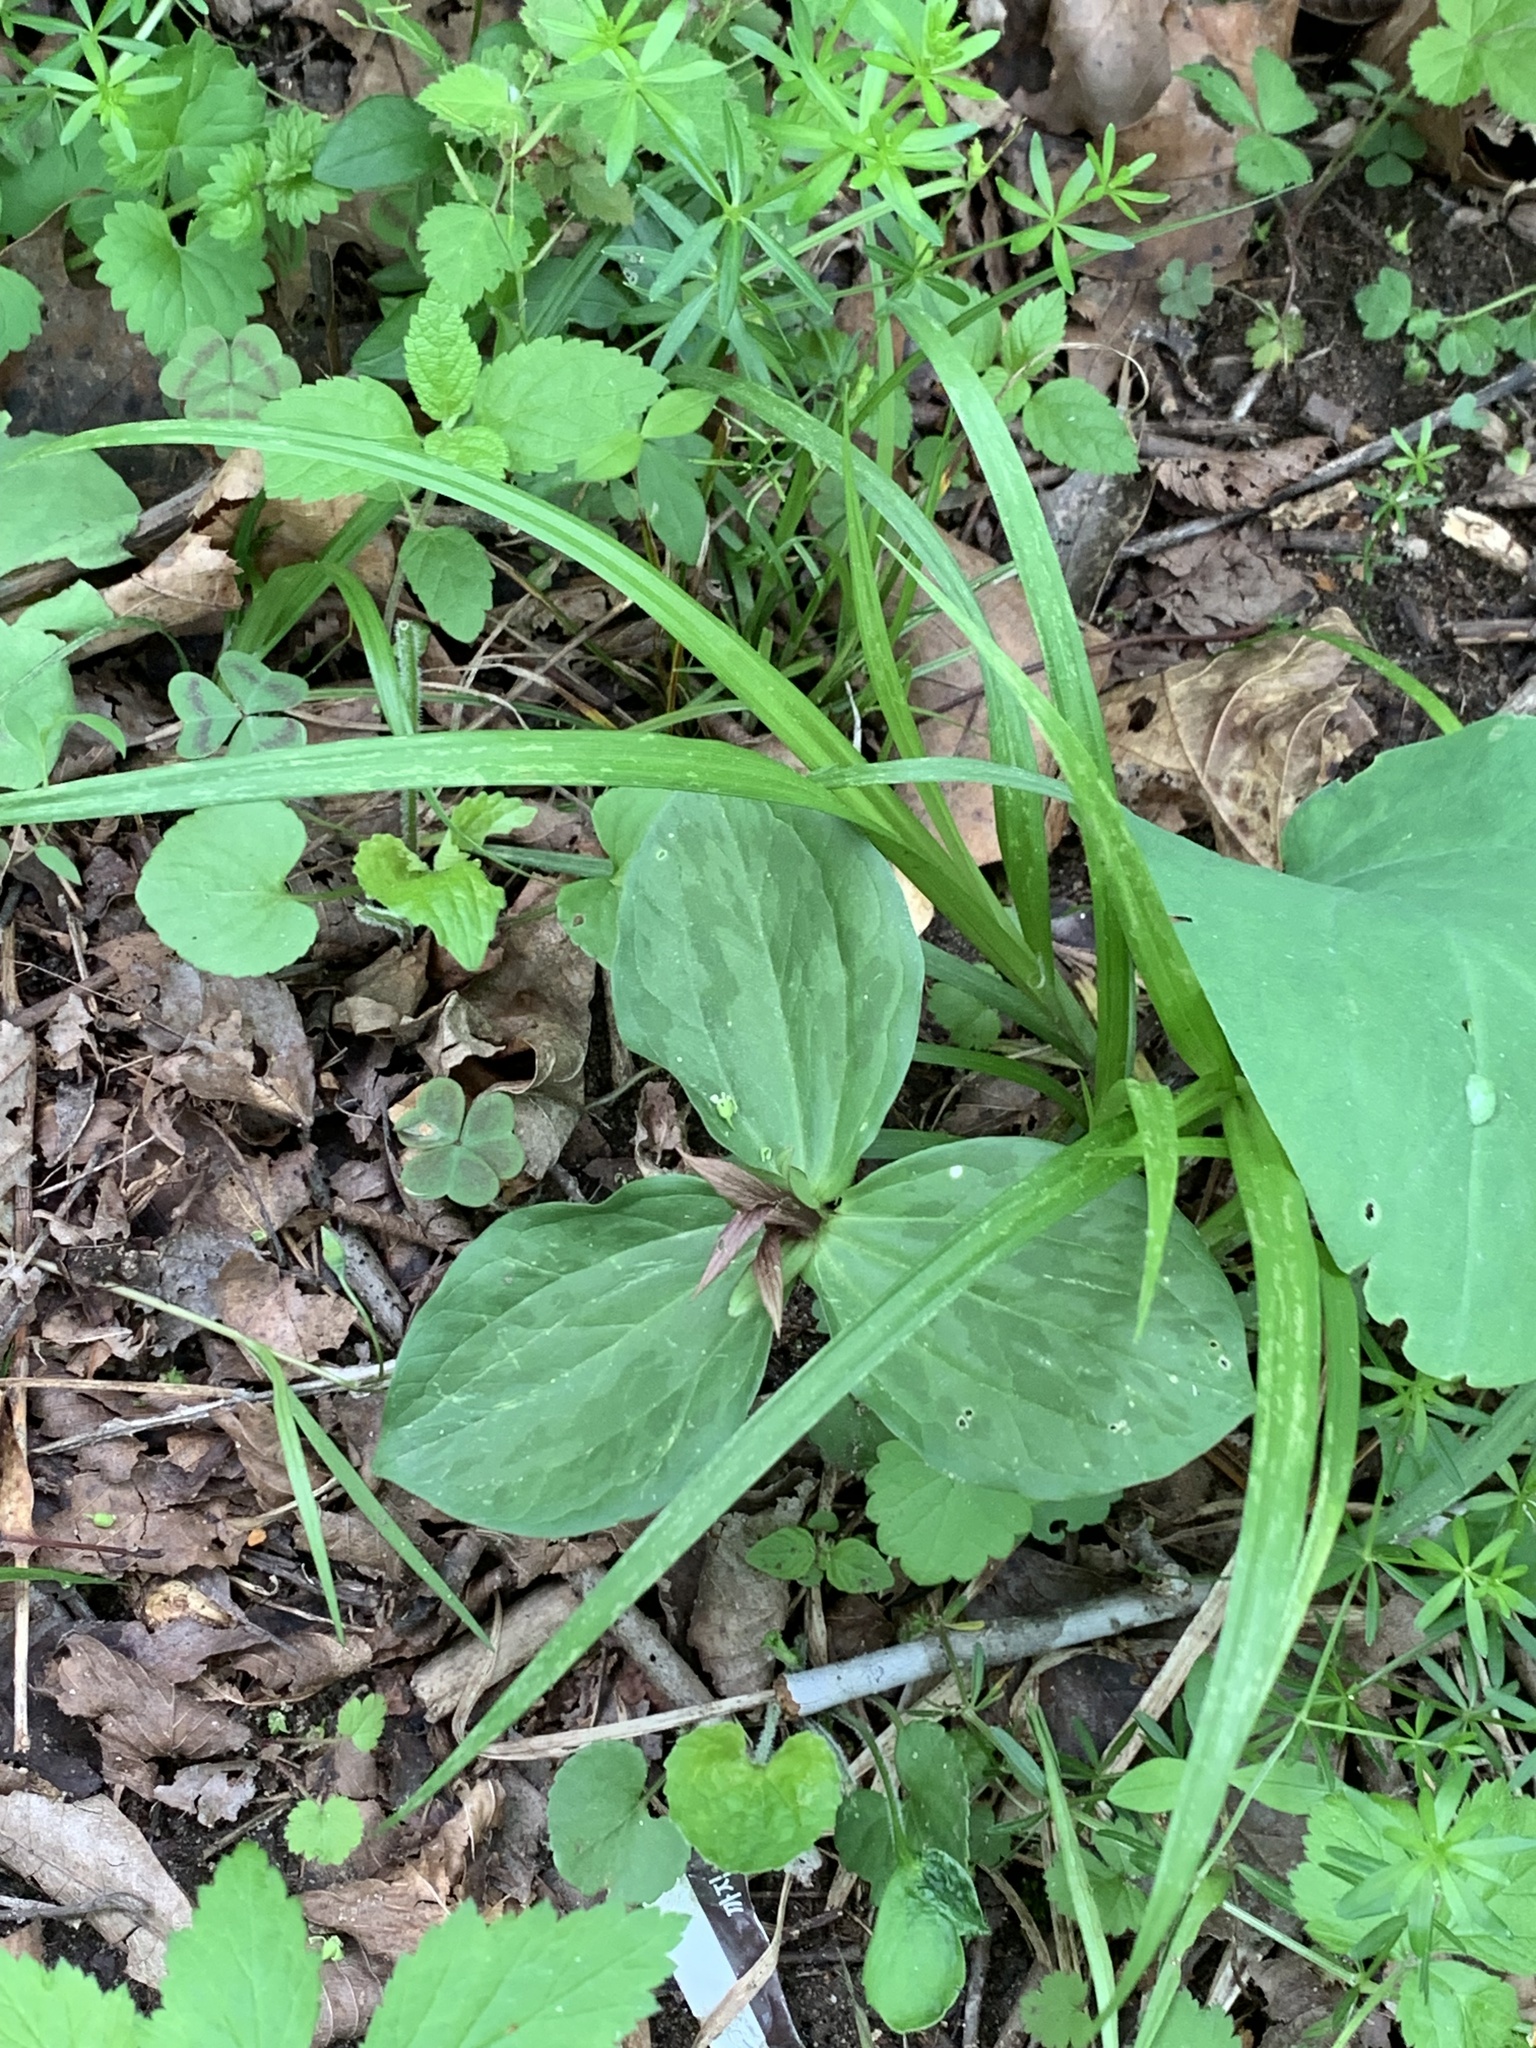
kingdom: Plantae
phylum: Tracheophyta
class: Liliopsida
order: Liliales
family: Melanthiaceae
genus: Trillium
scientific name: Trillium sessile
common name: Sessile trillium
